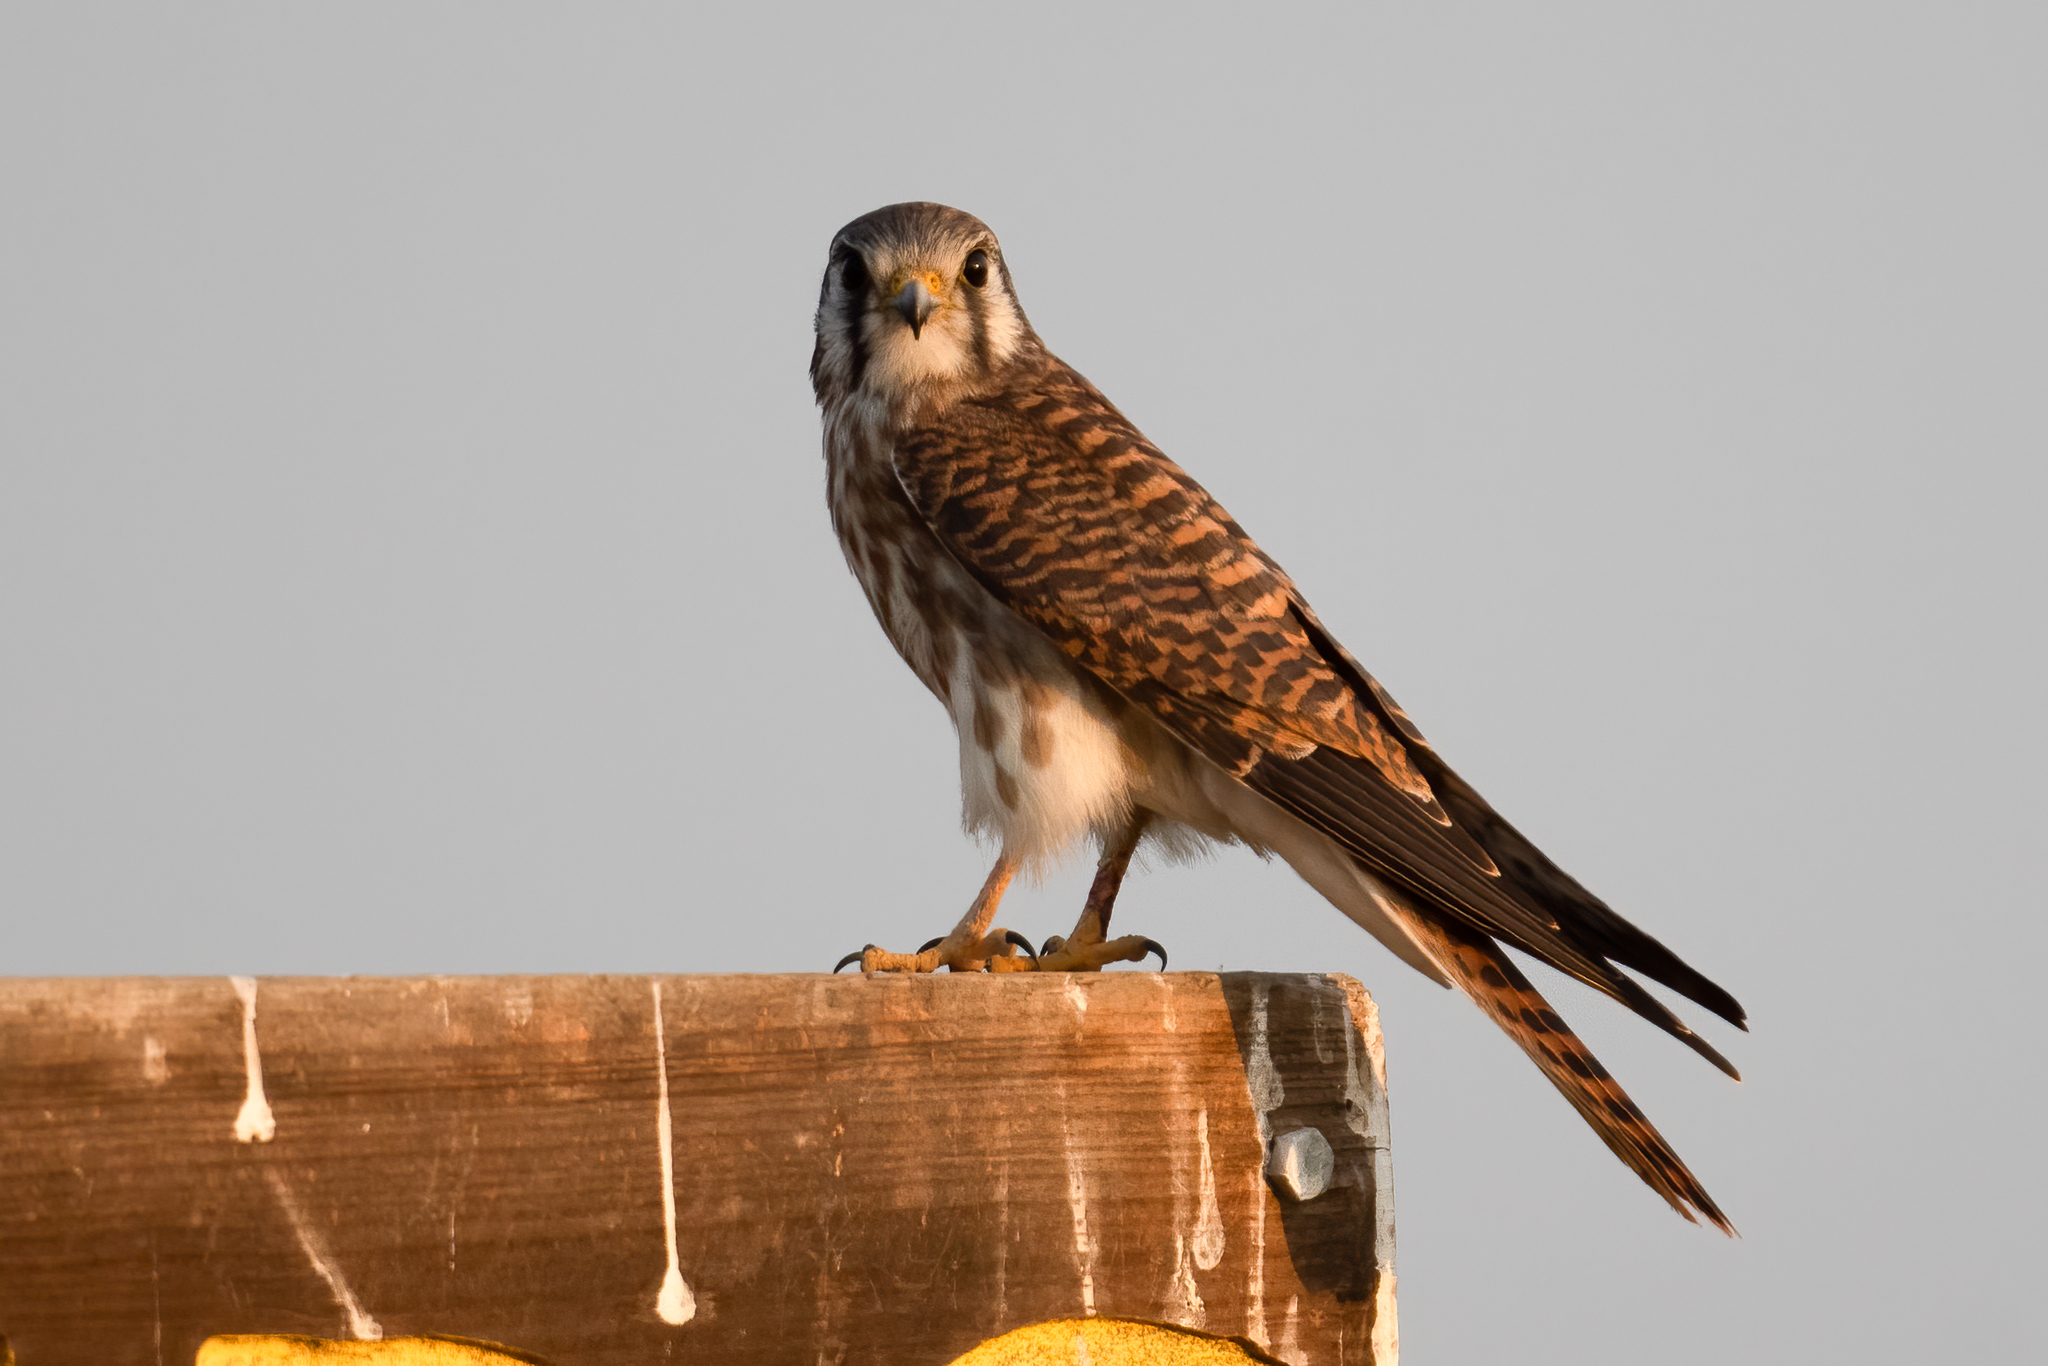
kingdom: Animalia
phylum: Chordata
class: Aves
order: Falconiformes
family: Falconidae
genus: Falco
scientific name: Falco sparverius
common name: American kestrel
